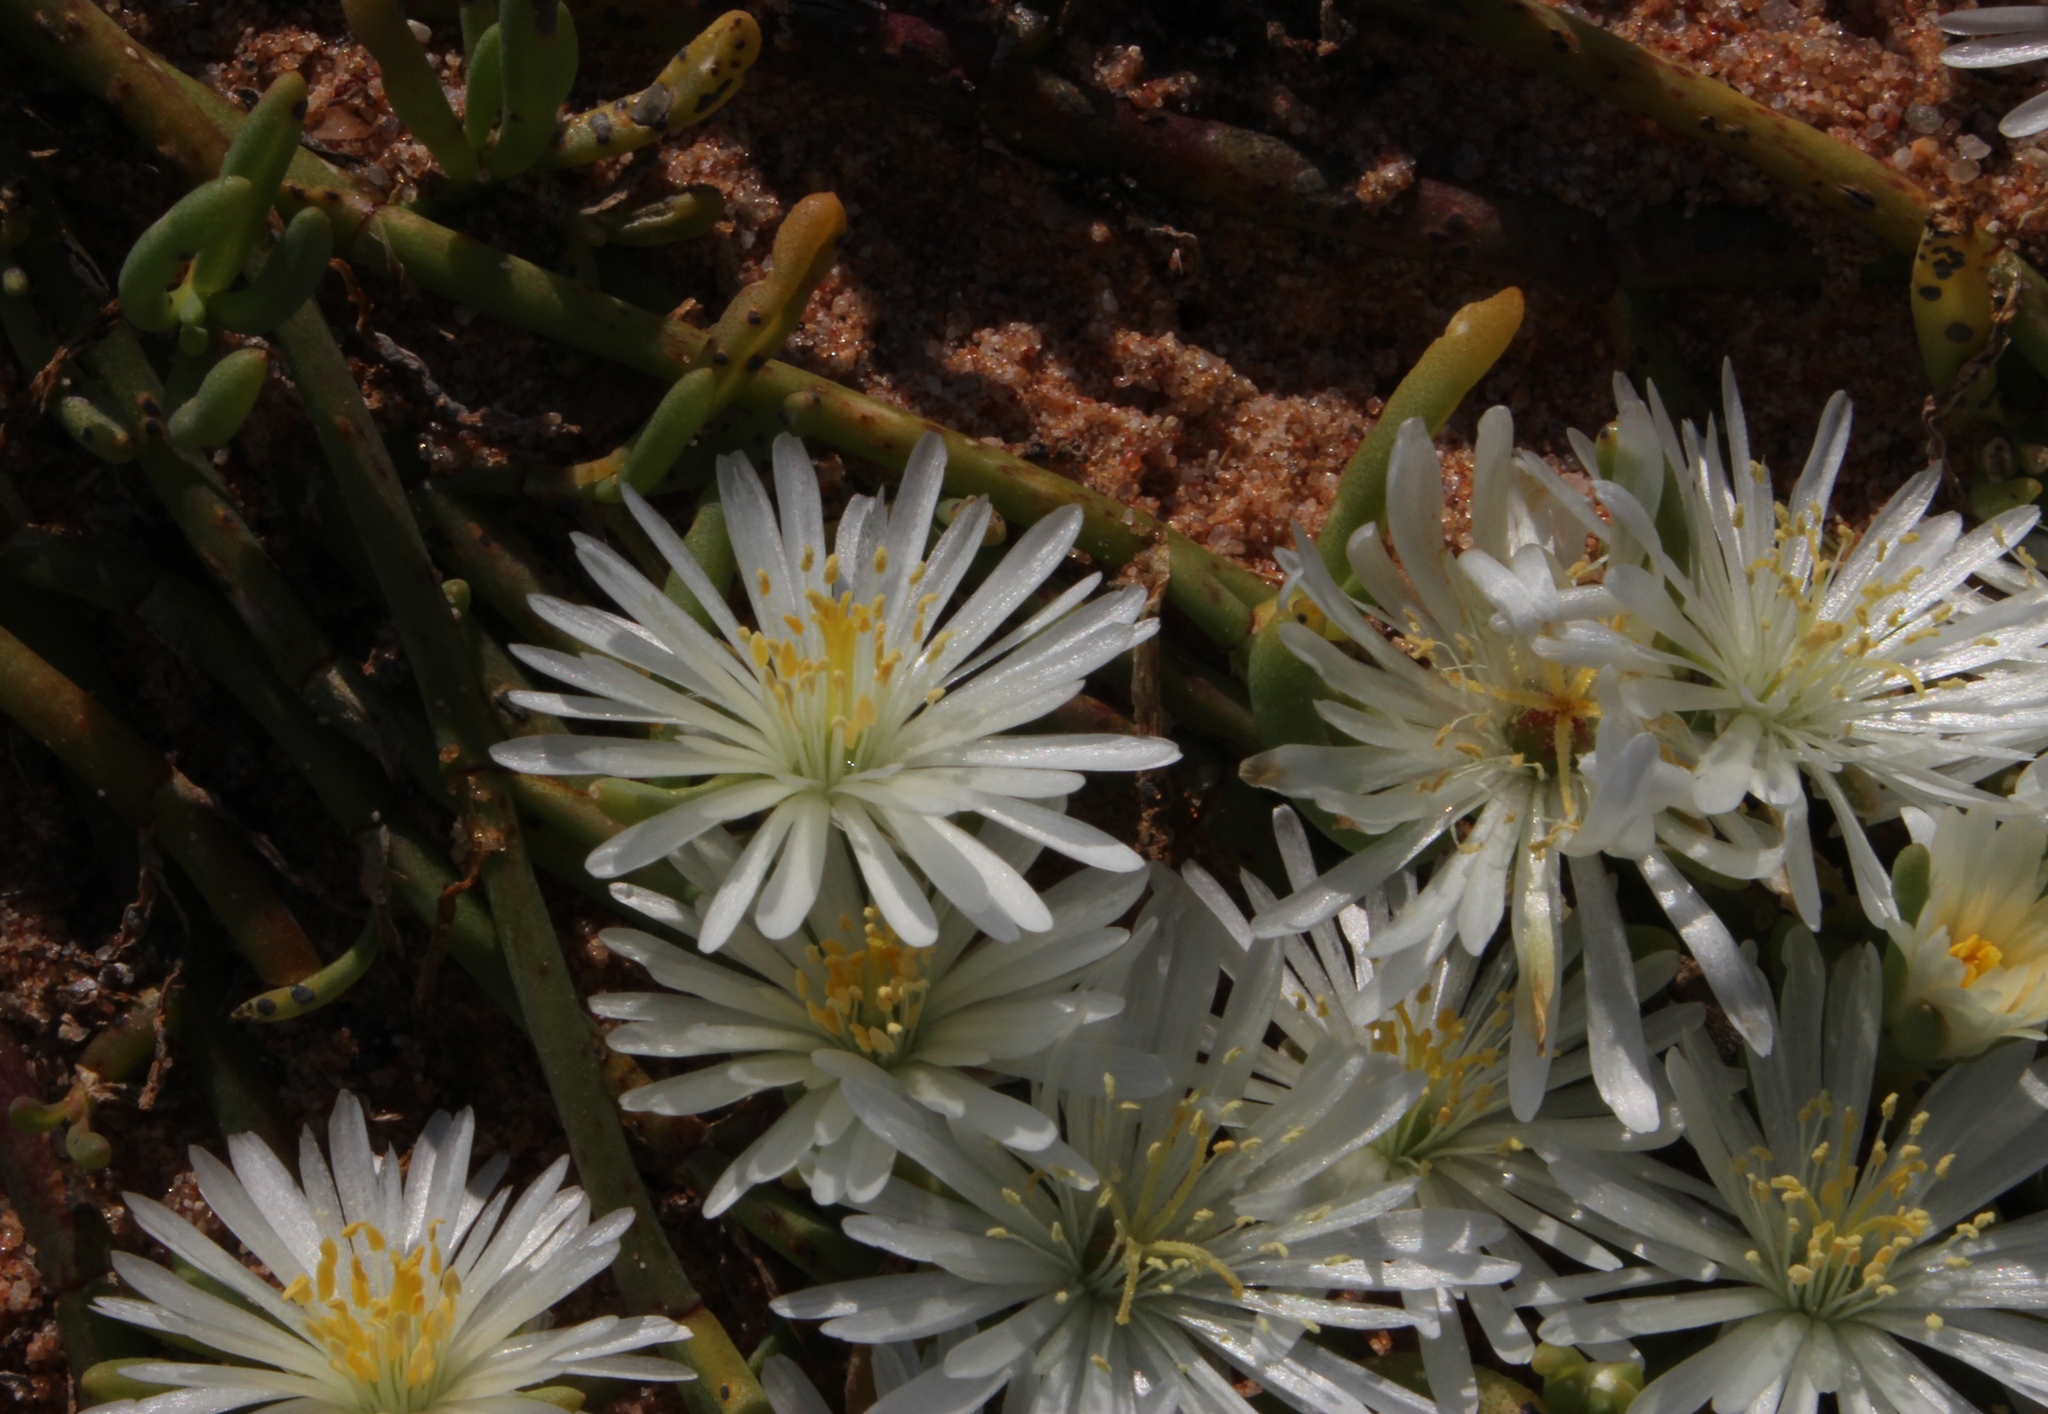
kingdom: Plantae
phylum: Tracheophyta
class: Magnoliopsida
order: Caryophyllales
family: Aizoaceae
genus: Mesembryanthemum
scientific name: Mesembryanthemum rapaceum
